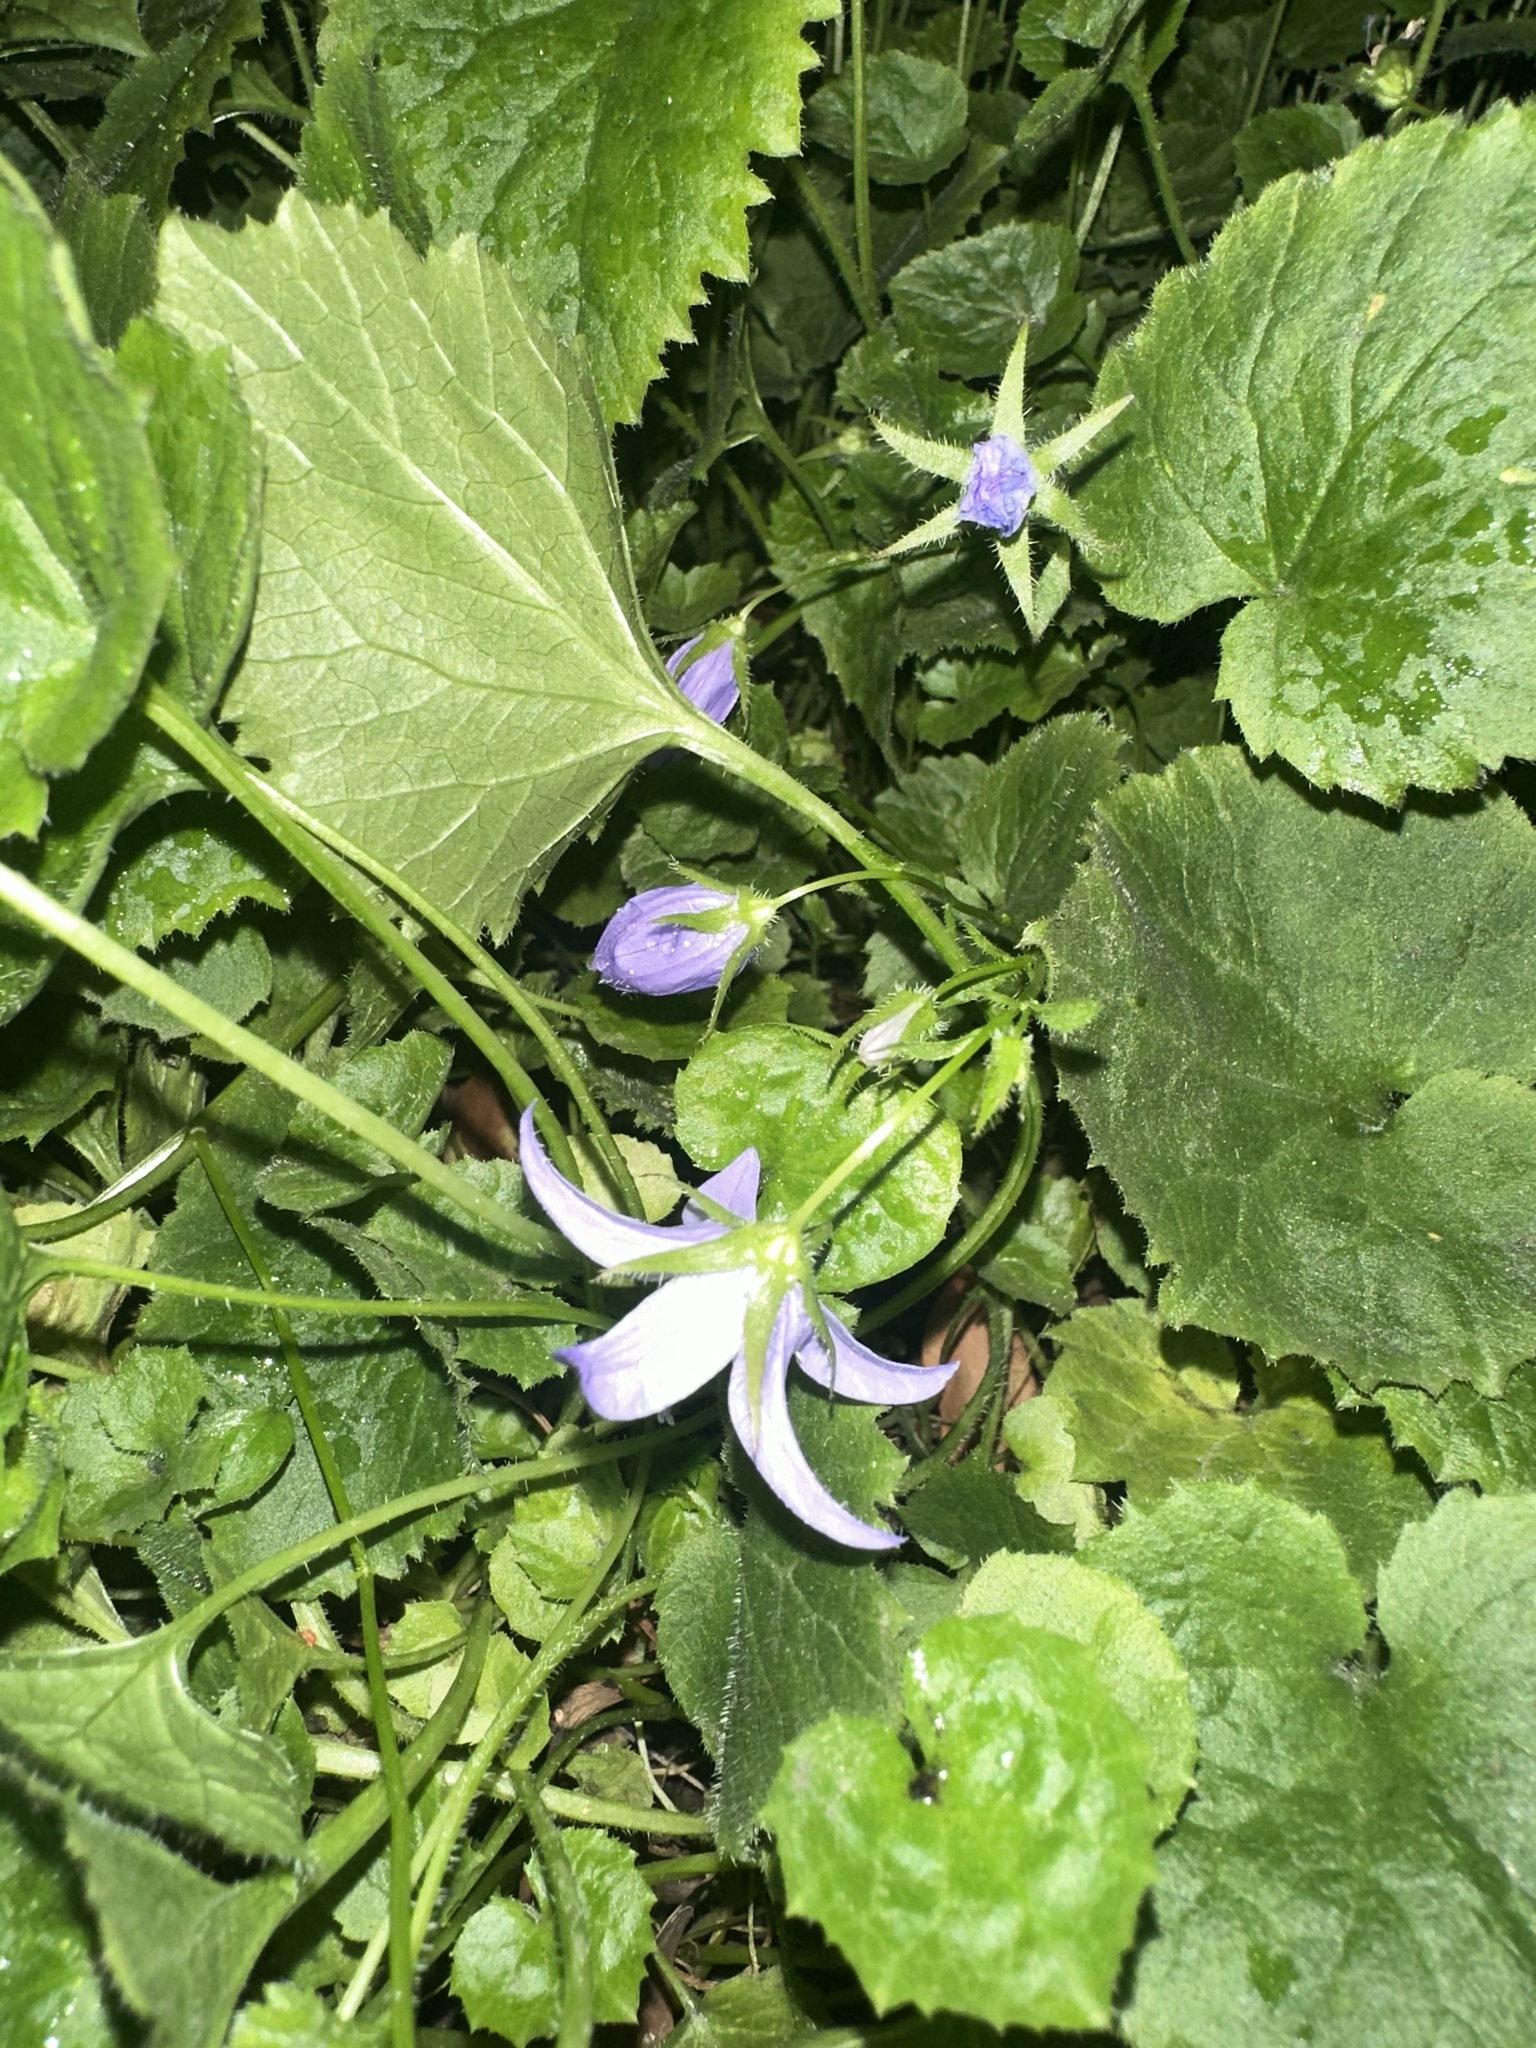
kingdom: Plantae
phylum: Tracheophyta
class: Magnoliopsida
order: Asterales
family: Campanulaceae
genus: Campanula
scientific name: Campanula poscharskyana
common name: Trailing bellflower
